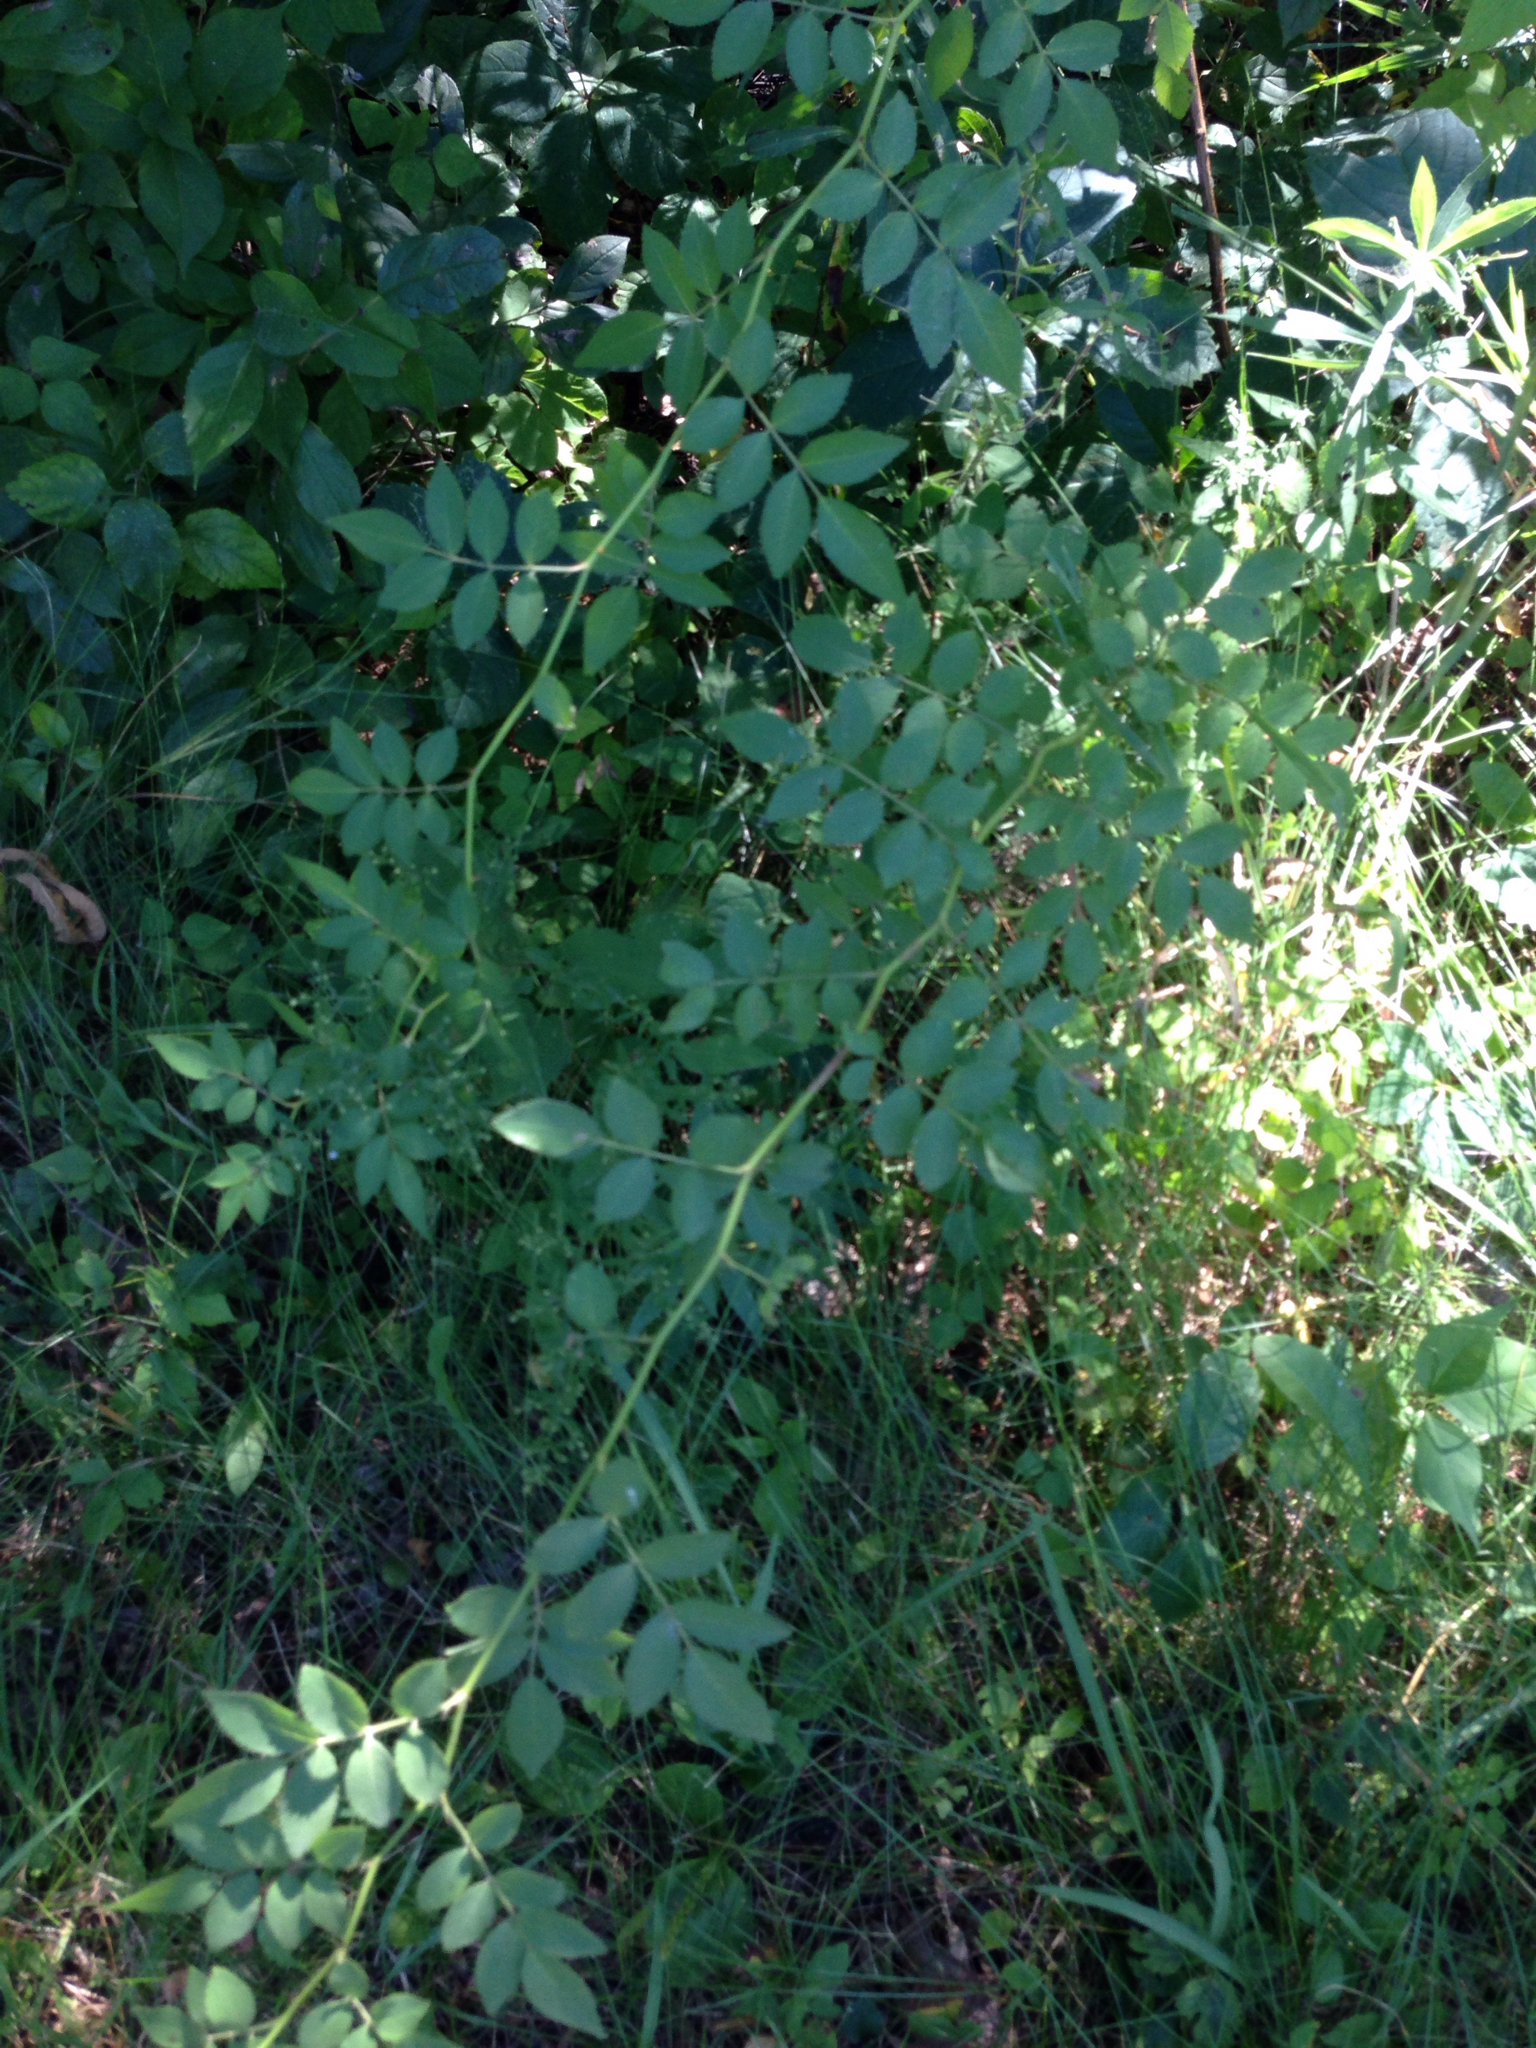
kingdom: Plantae
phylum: Tracheophyta
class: Magnoliopsida
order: Rosales
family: Rosaceae
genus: Rosa
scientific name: Rosa multiflora
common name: Multiflora rose
